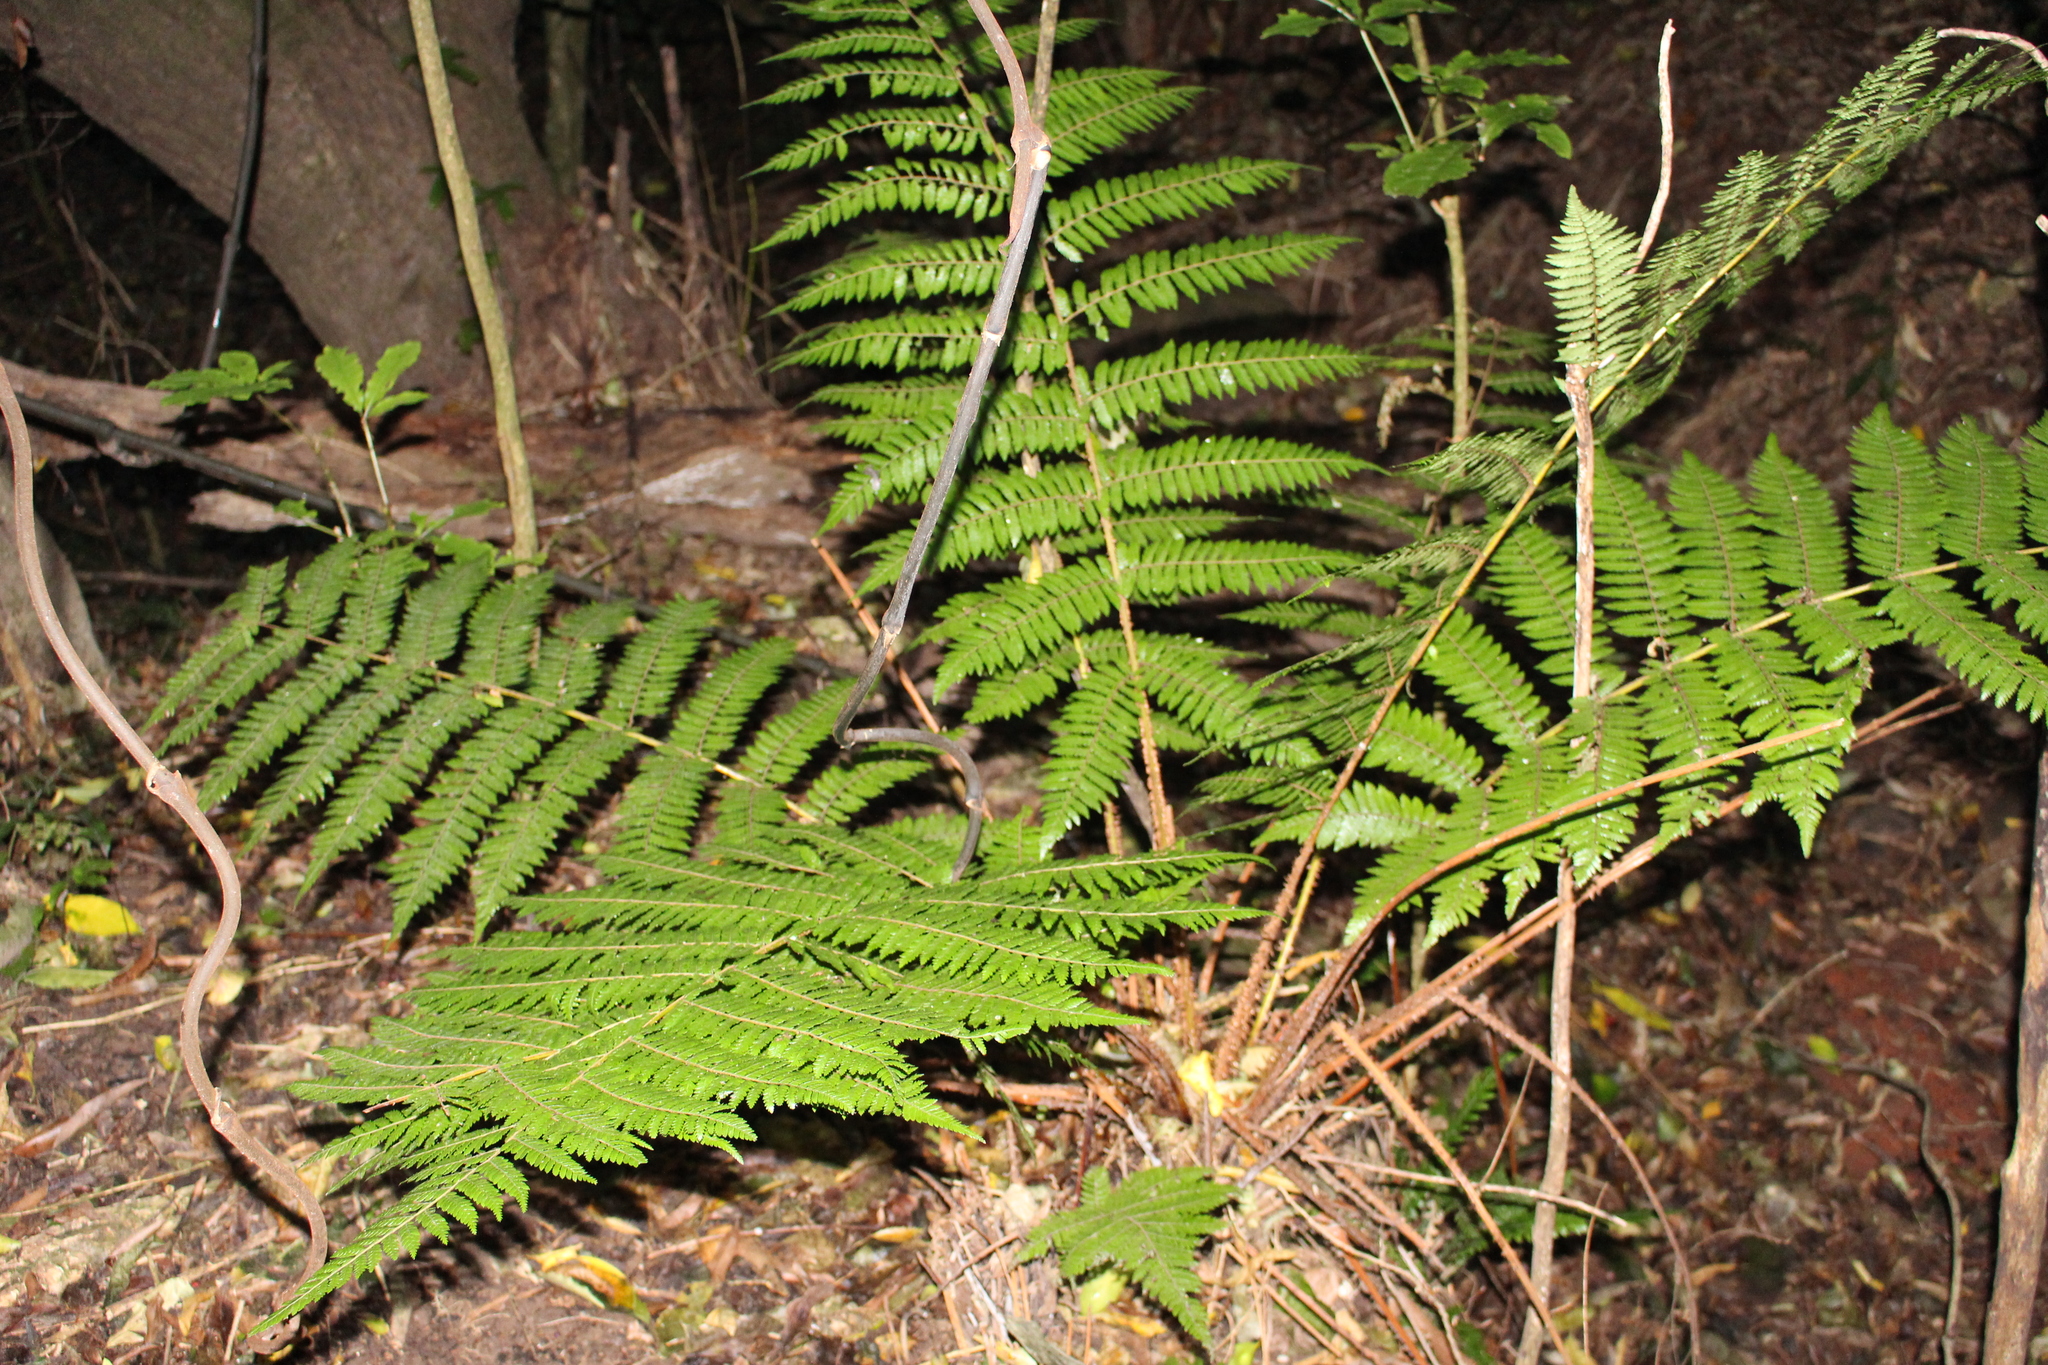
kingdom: Plantae
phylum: Tracheophyta
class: Polypodiopsida
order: Cyatheales
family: Cyatheaceae
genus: Alsophila
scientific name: Alsophila smithii
